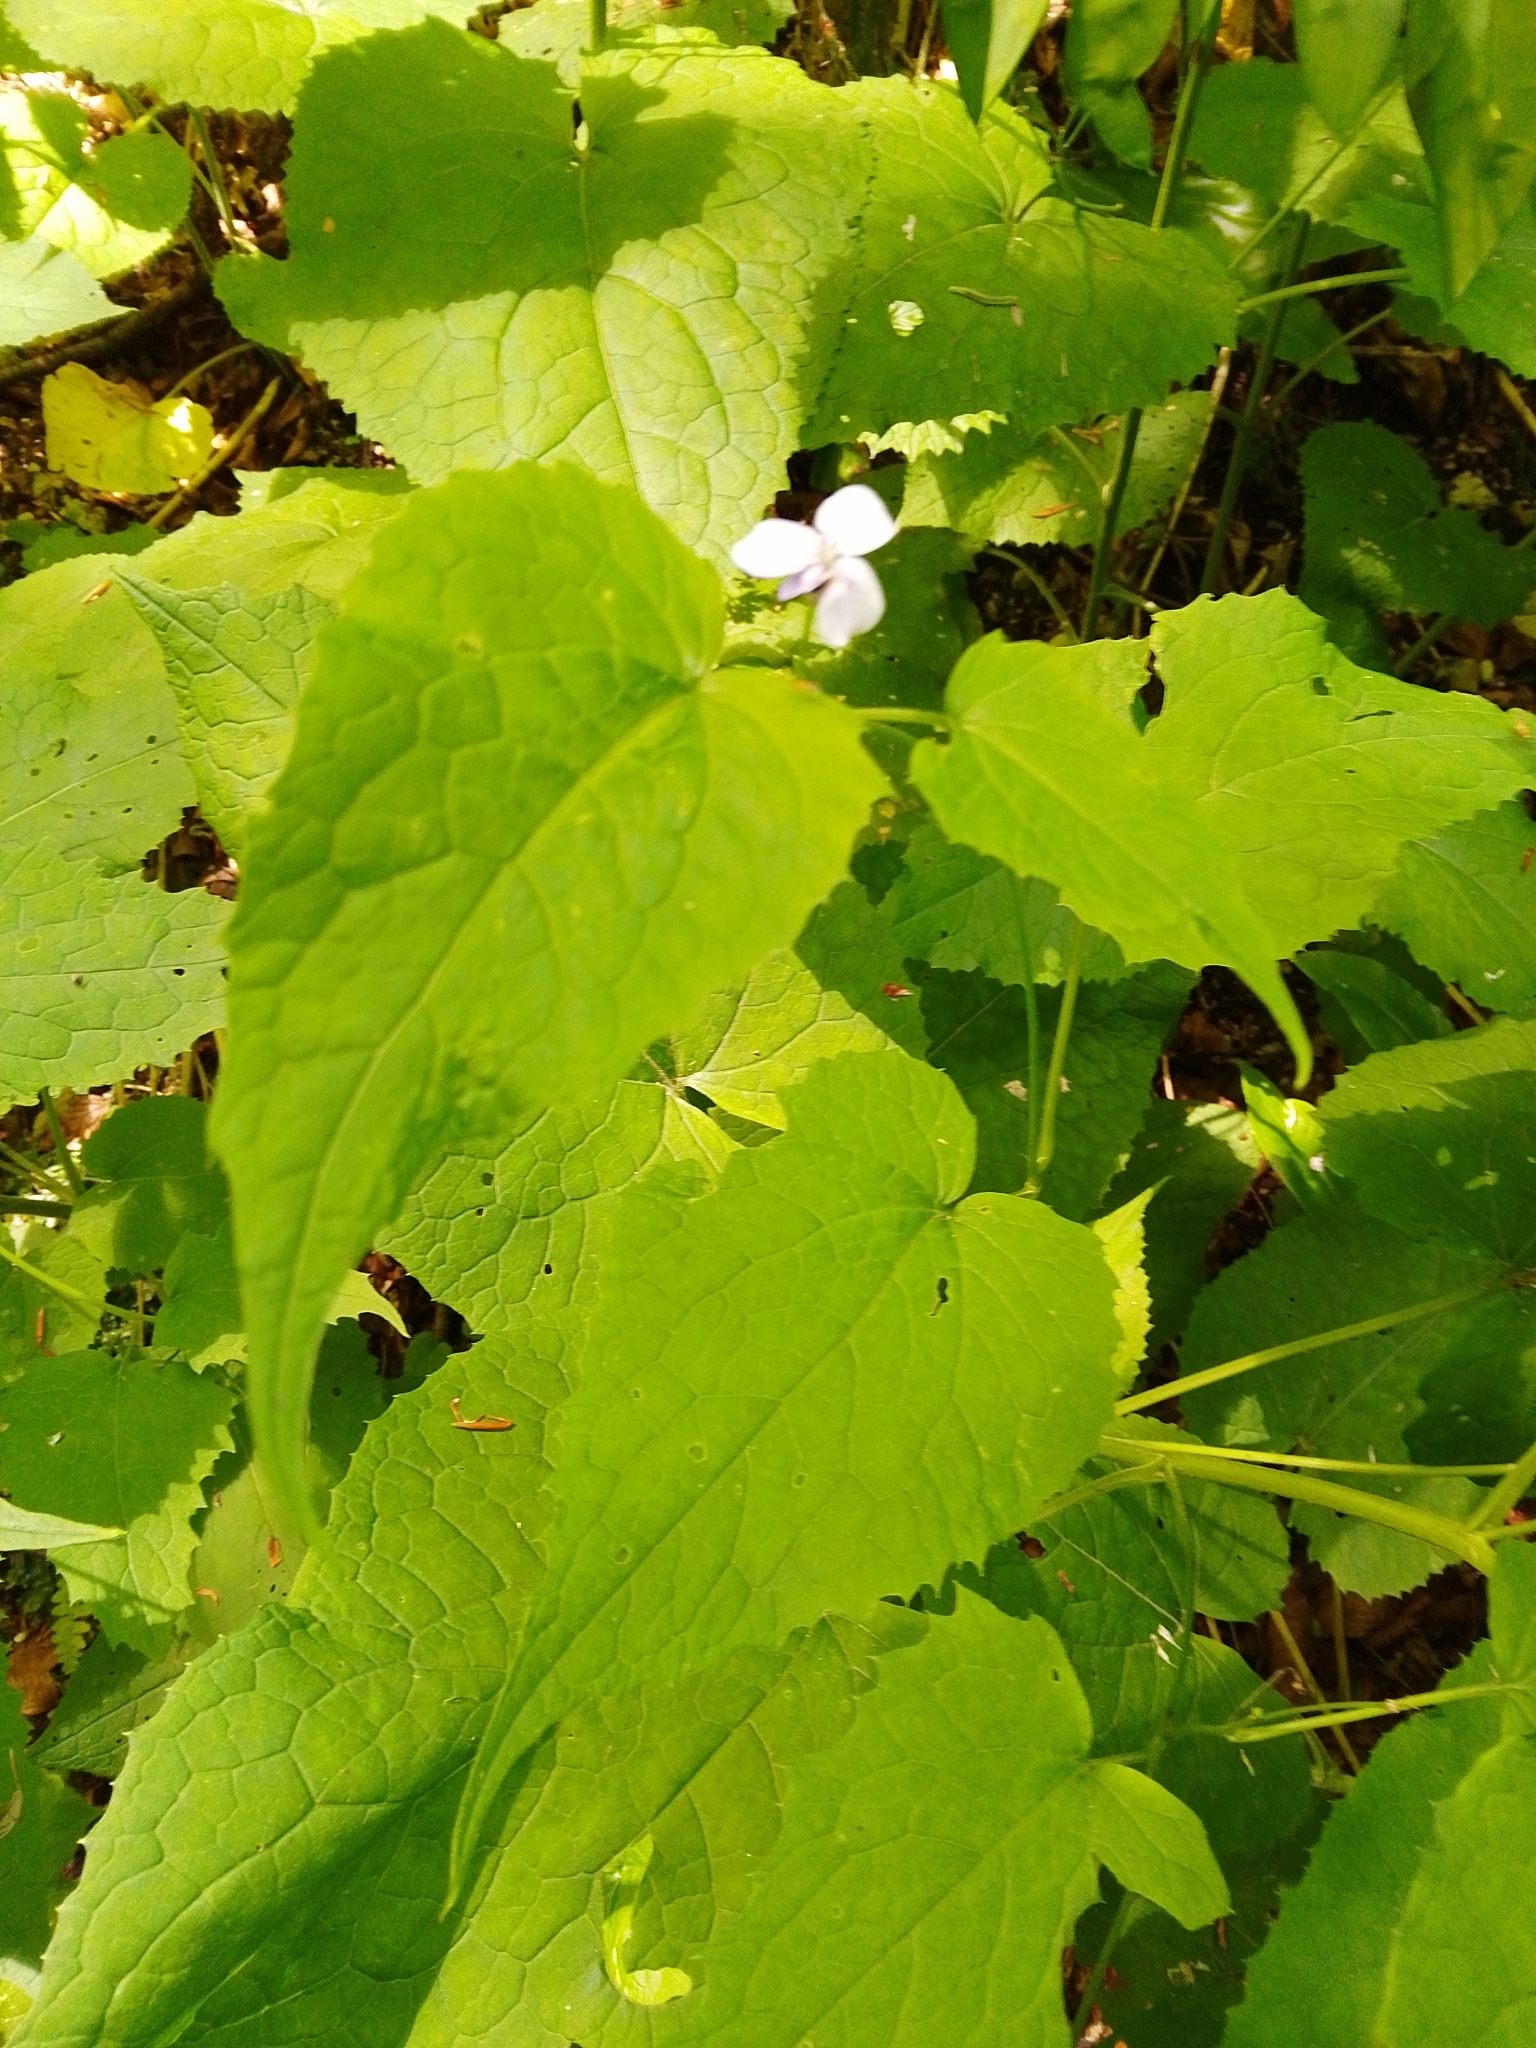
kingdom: Plantae
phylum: Tracheophyta
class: Magnoliopsida
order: Brassicales
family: Brassicaceae
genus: Lunaria
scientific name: Lunaria rediviva
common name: Perennial honesty
